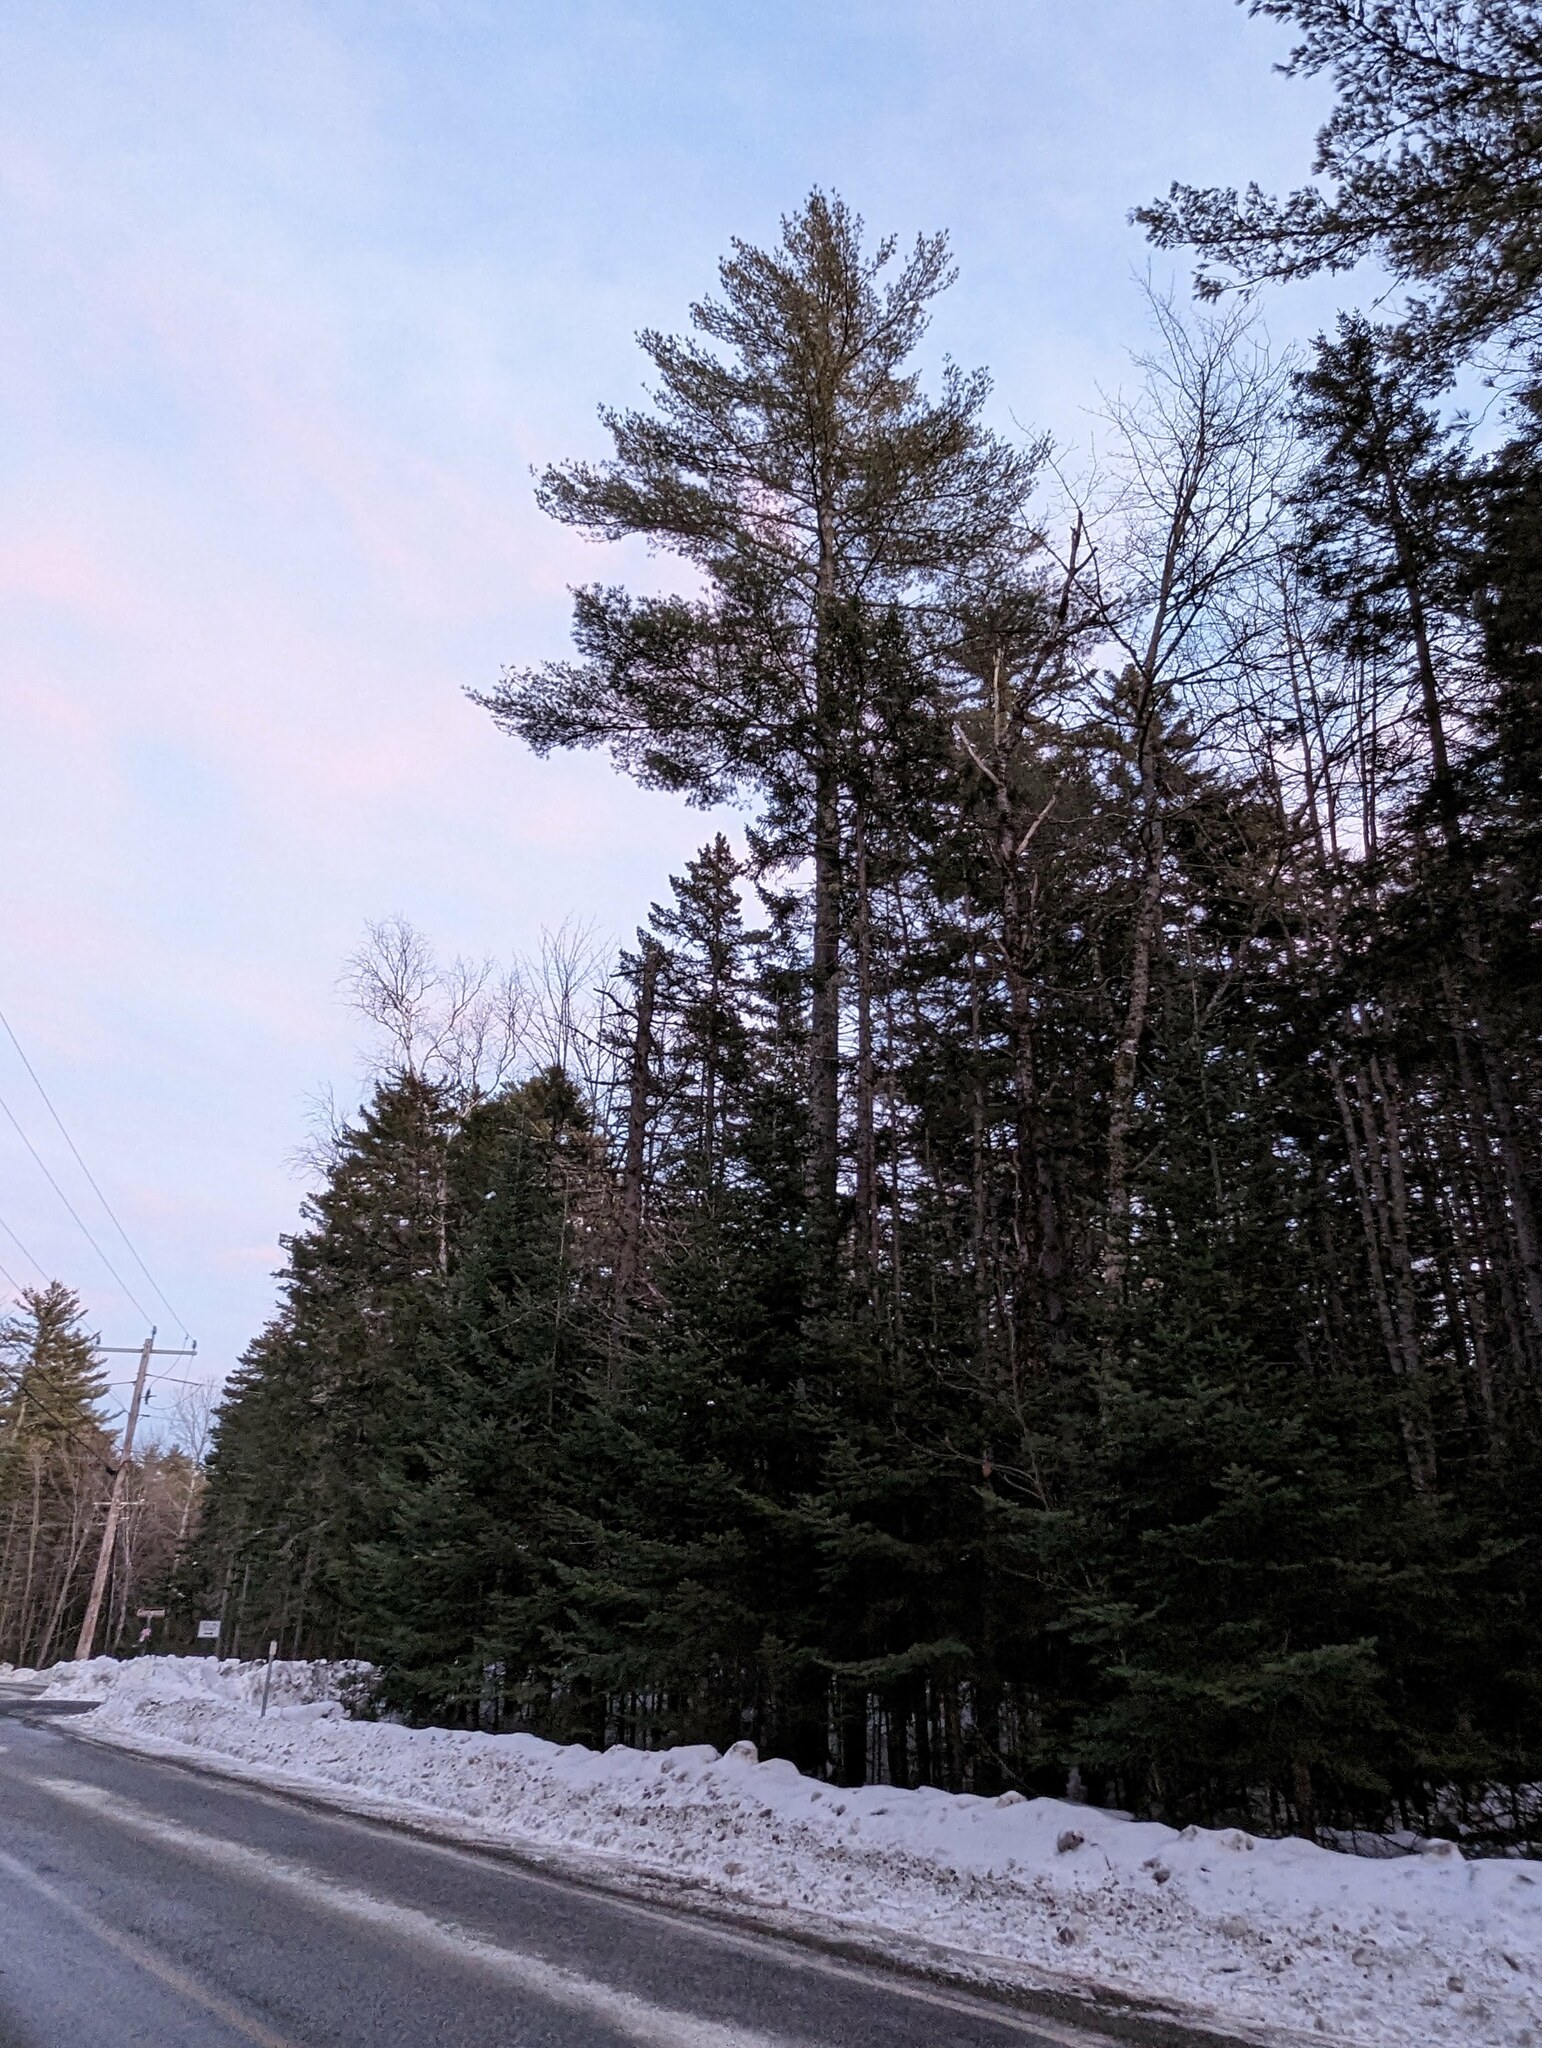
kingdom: Plantae
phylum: Tracheophyta
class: Pinopsida
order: Pinales
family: Pinaceae
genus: Pinus
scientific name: Pinus strobus
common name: Weymouth pine
